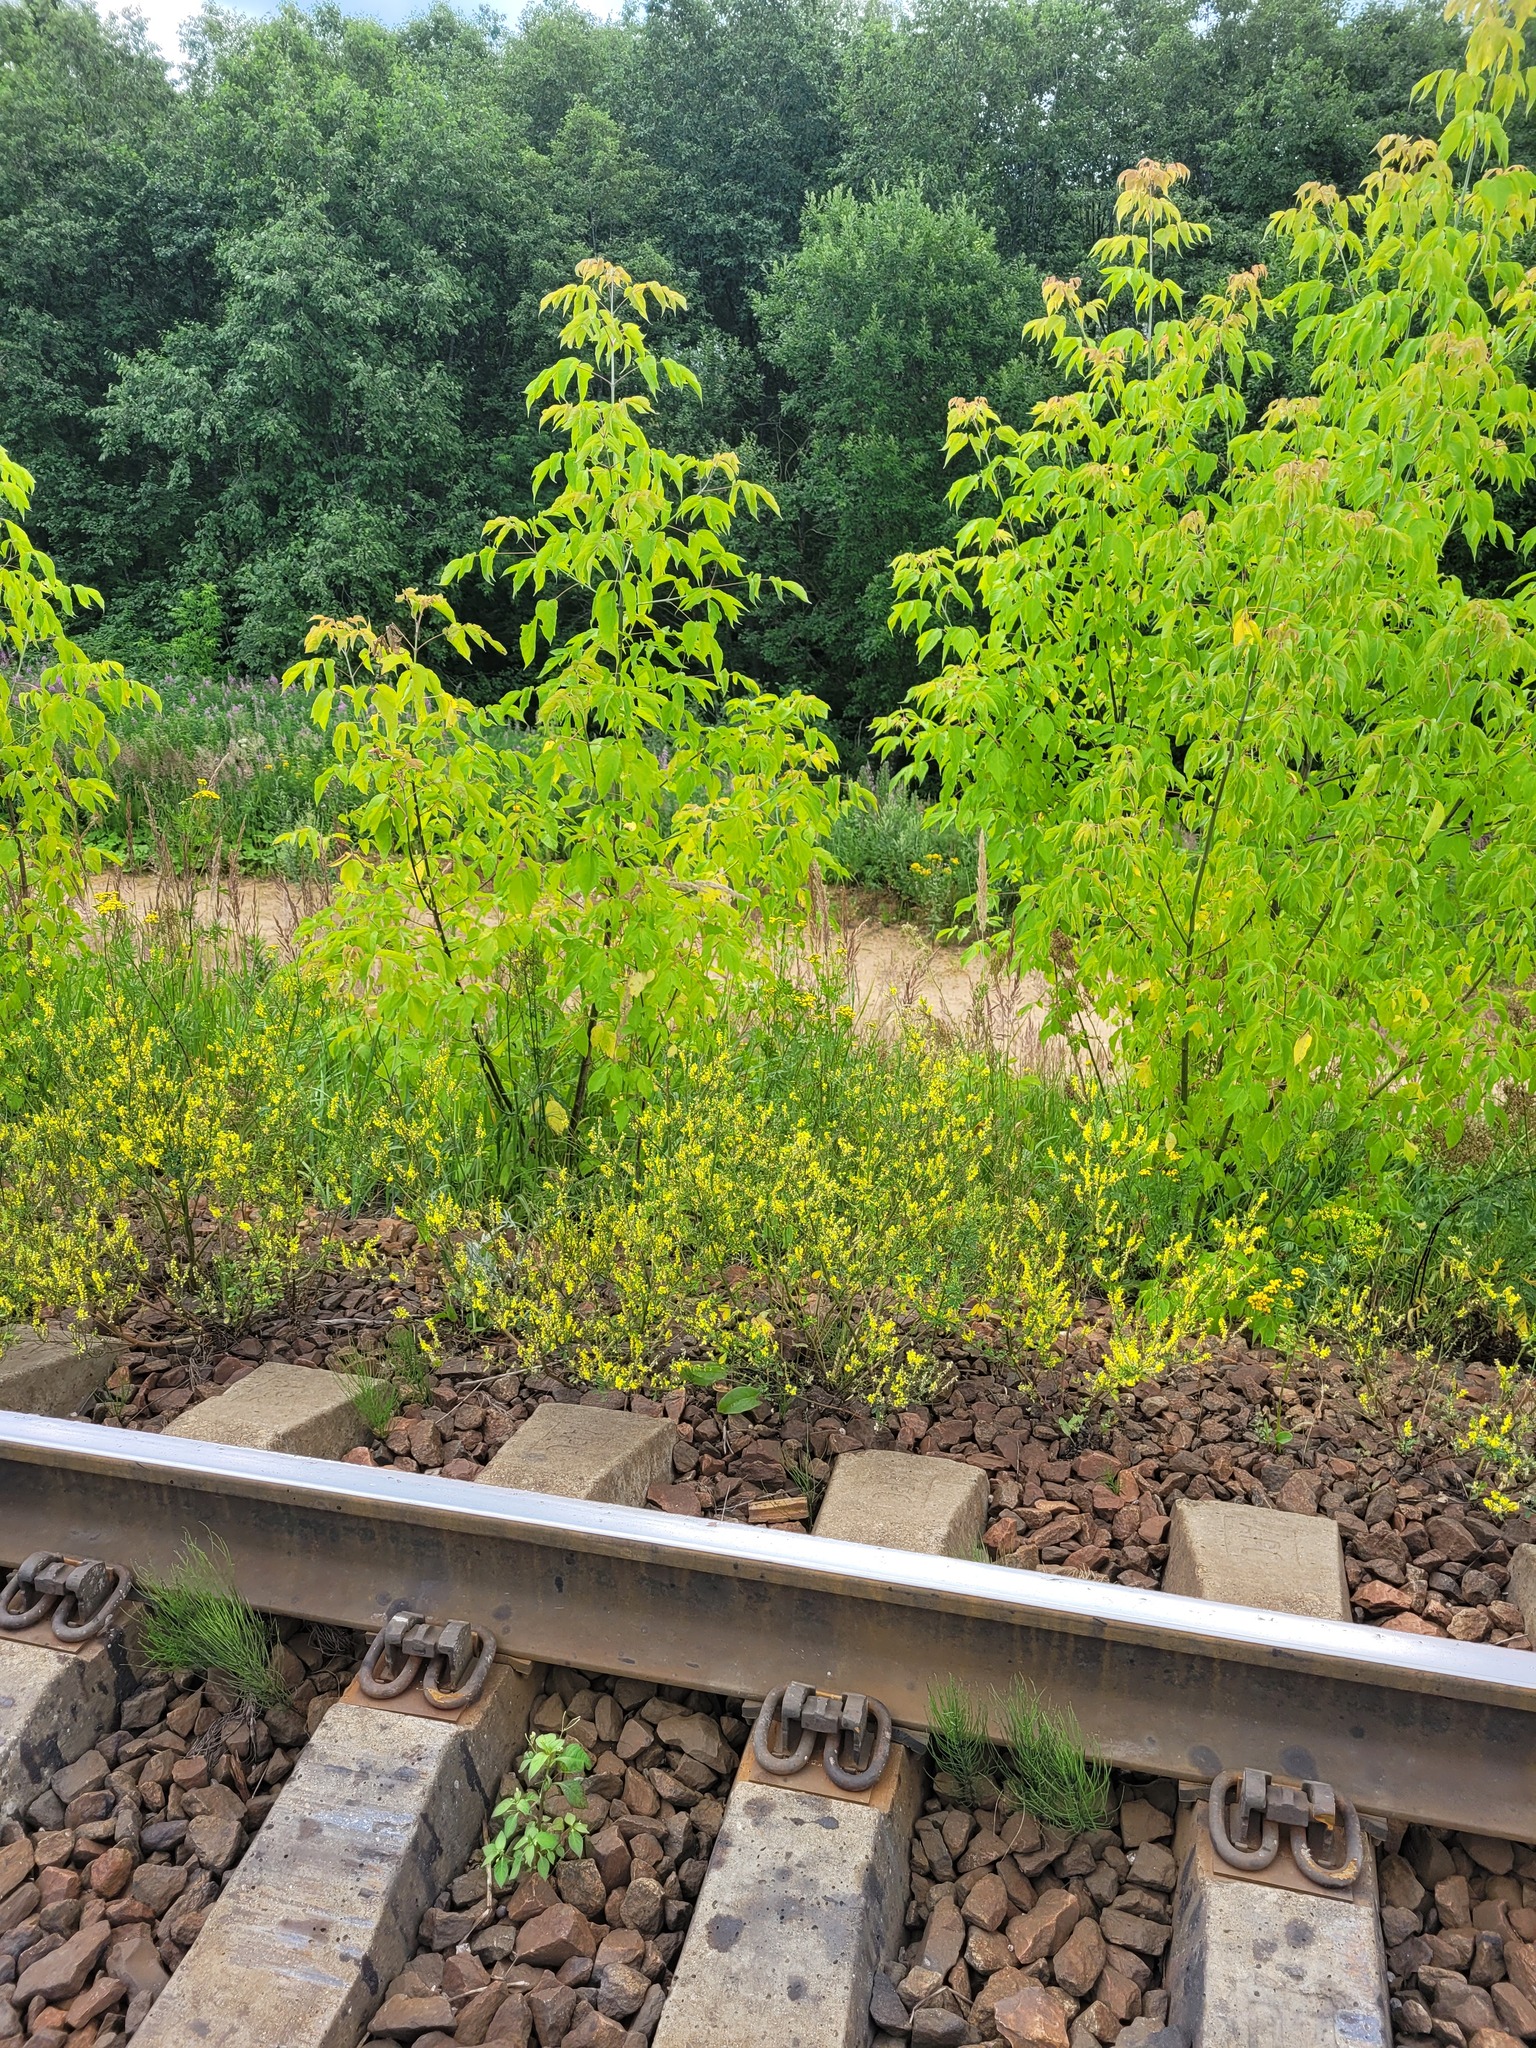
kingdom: Plantae
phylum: Tracheophyta
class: Magnoliopsida
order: Fabales
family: Fabaceae
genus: Melilotus
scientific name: Melilotus officinalis
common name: Sweetclover
